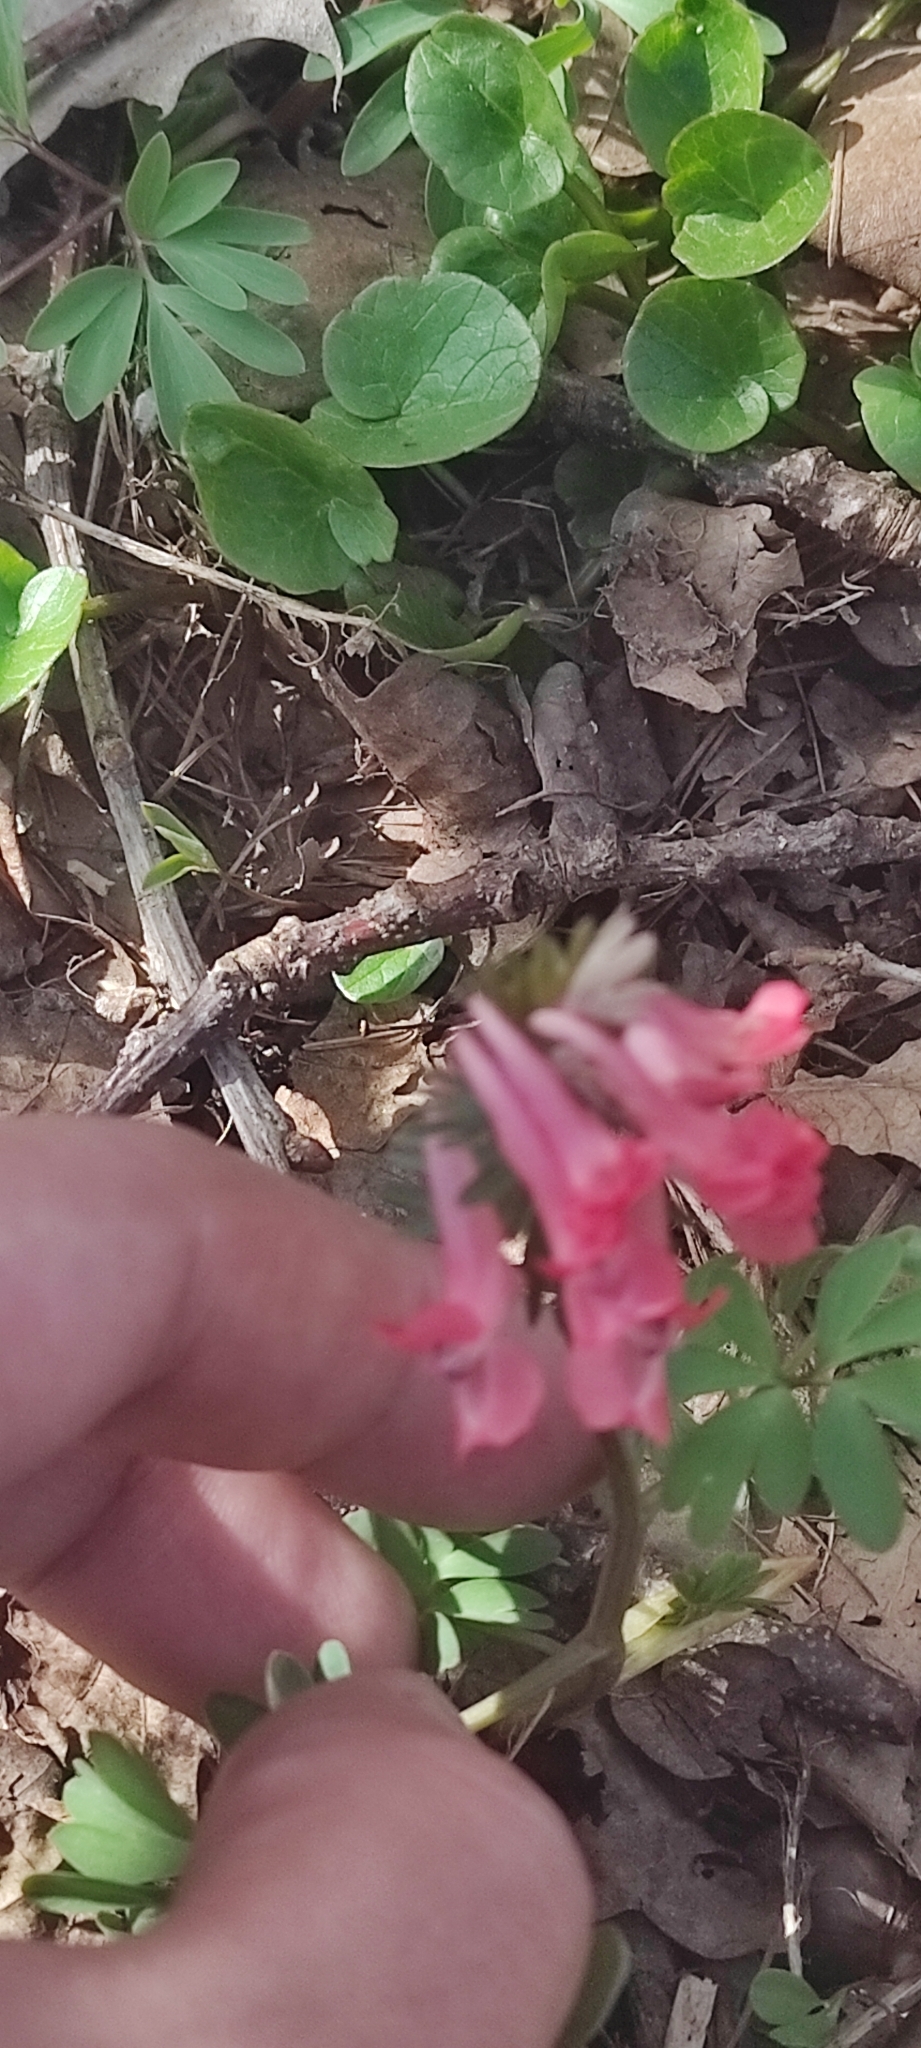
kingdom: Plantae
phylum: Tracheophyta
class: Magnoliopsida
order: Ranunculales
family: Papaveraceae
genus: Corydalis
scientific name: Corydalis solida
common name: Bird-in-a-bush
